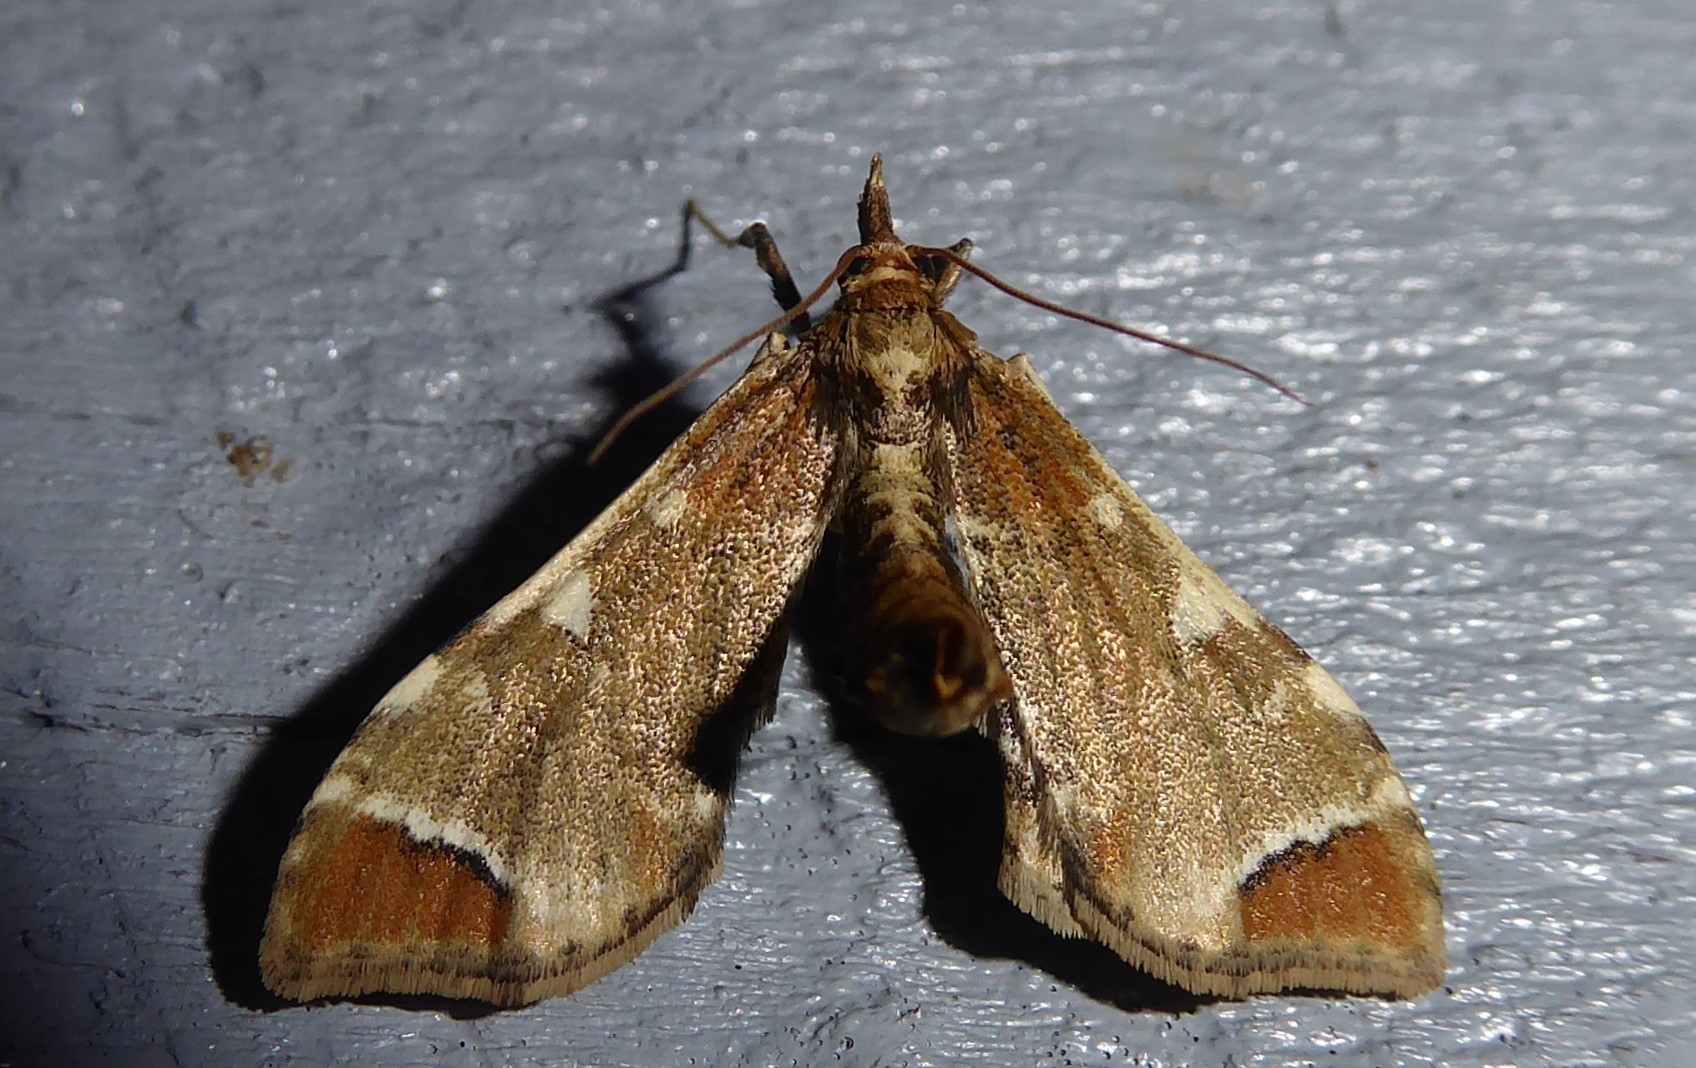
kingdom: Animalia
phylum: Arthropoda
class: Insecta
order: Lepidoptera
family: Crambidae
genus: Sceliodes
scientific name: Sceliodes cordalis
